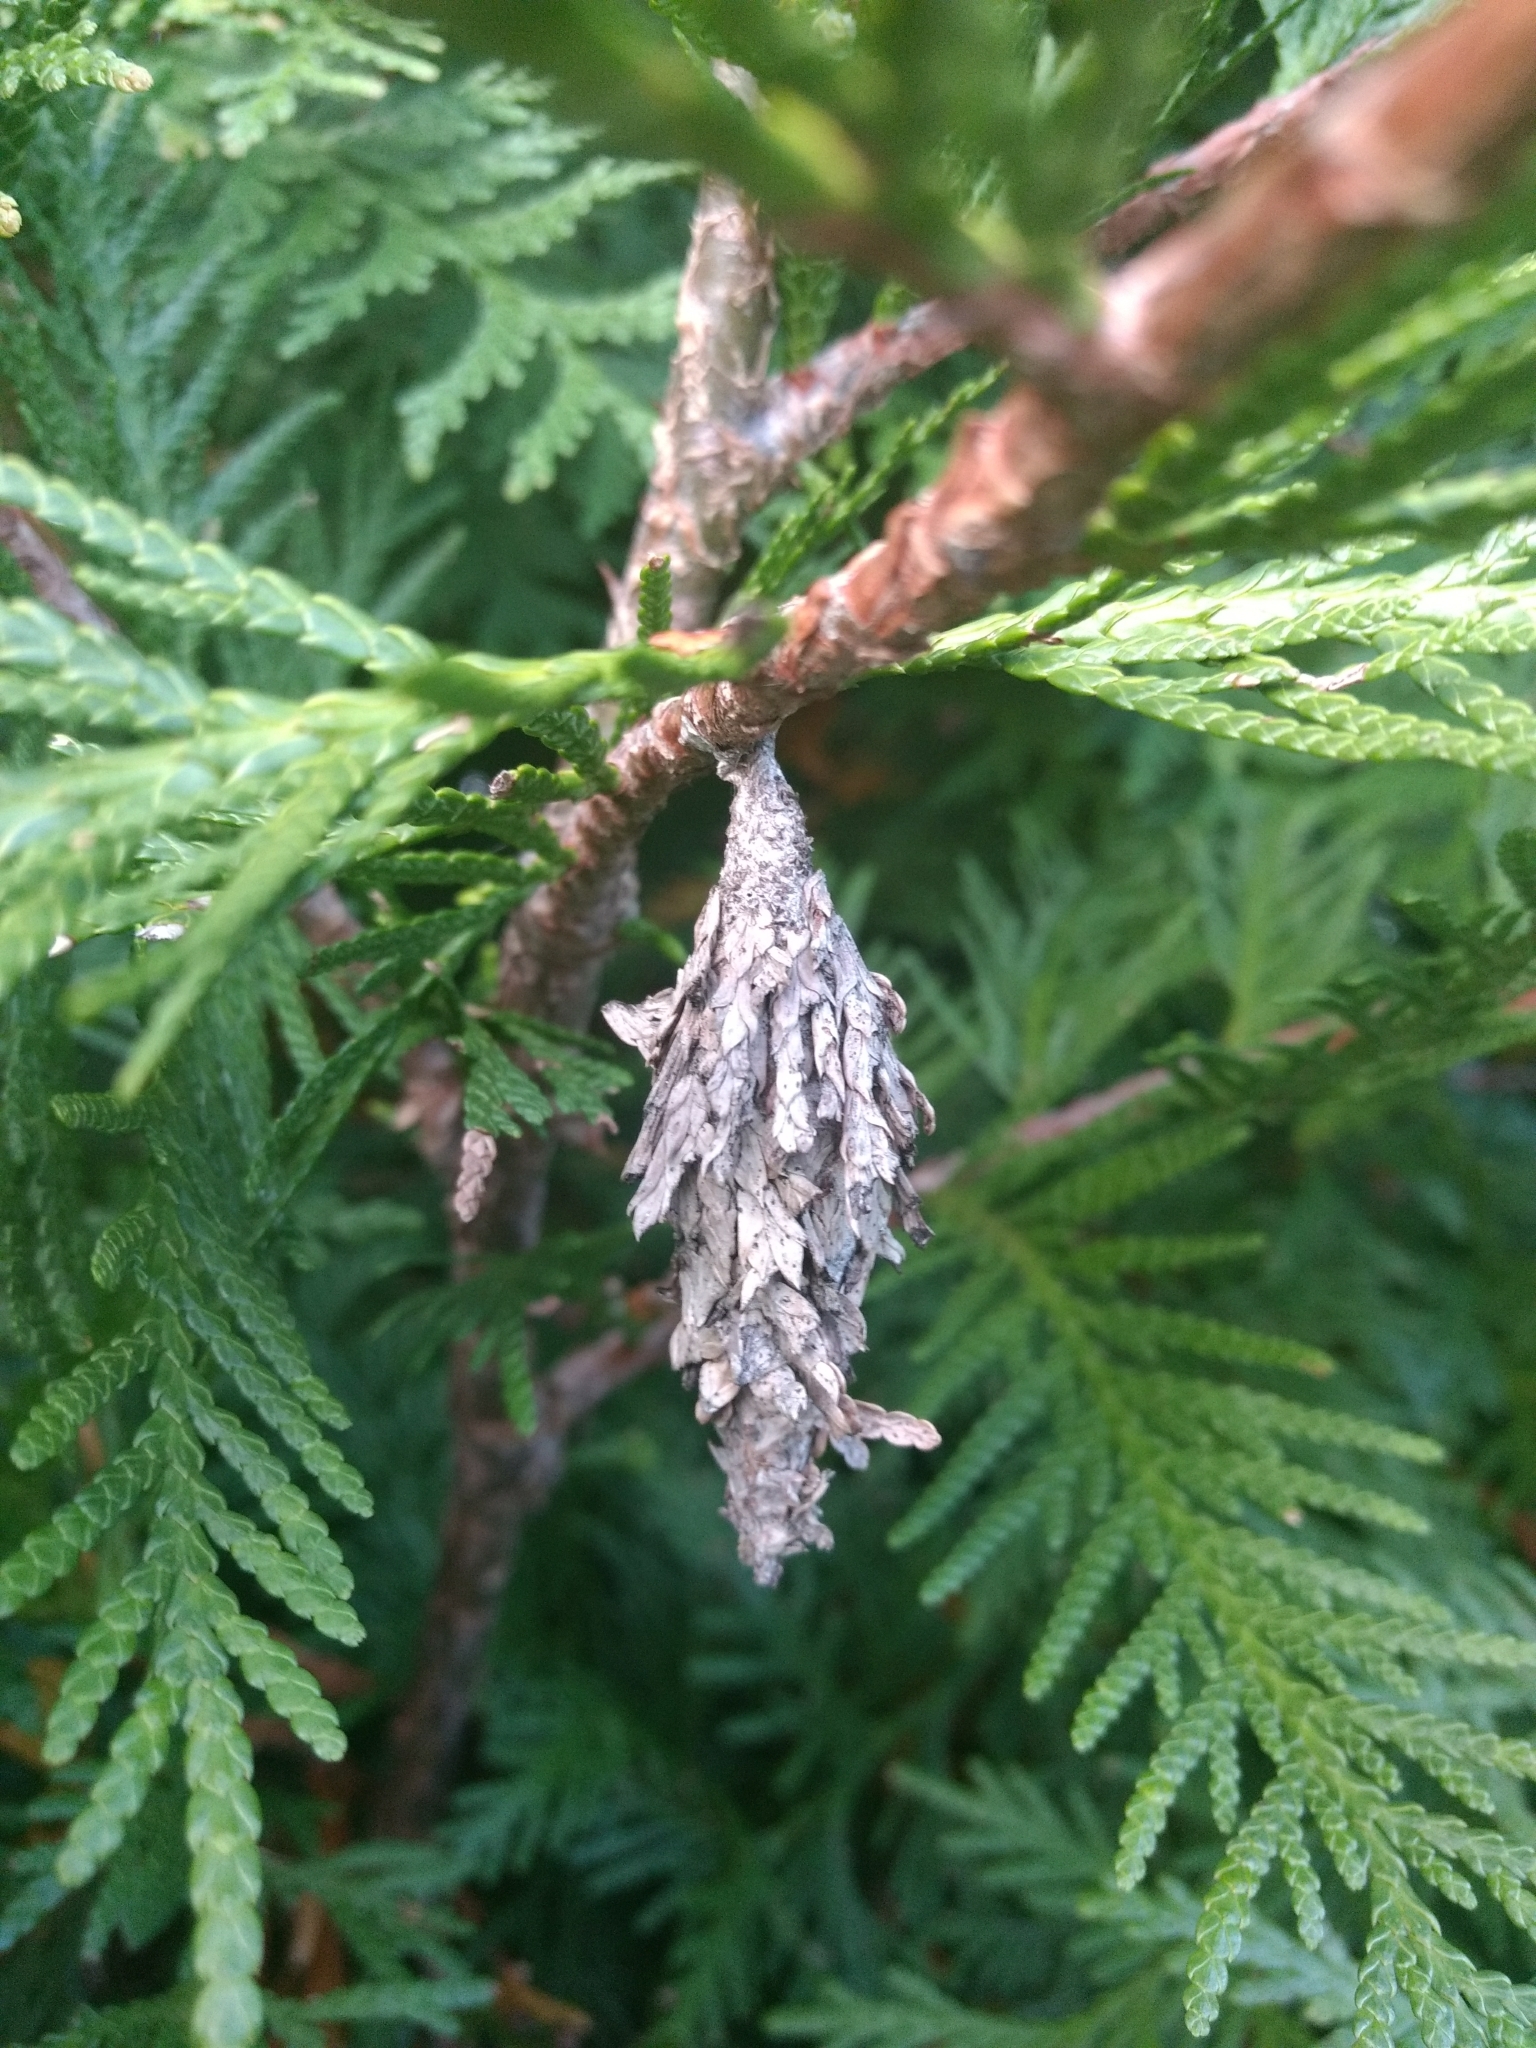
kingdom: Animalia
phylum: Arthropoda
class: Insecta
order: Lepidoptera
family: Psychidae
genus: Thyridopteryx
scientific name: Thyridopteryx ephemeraeformis
